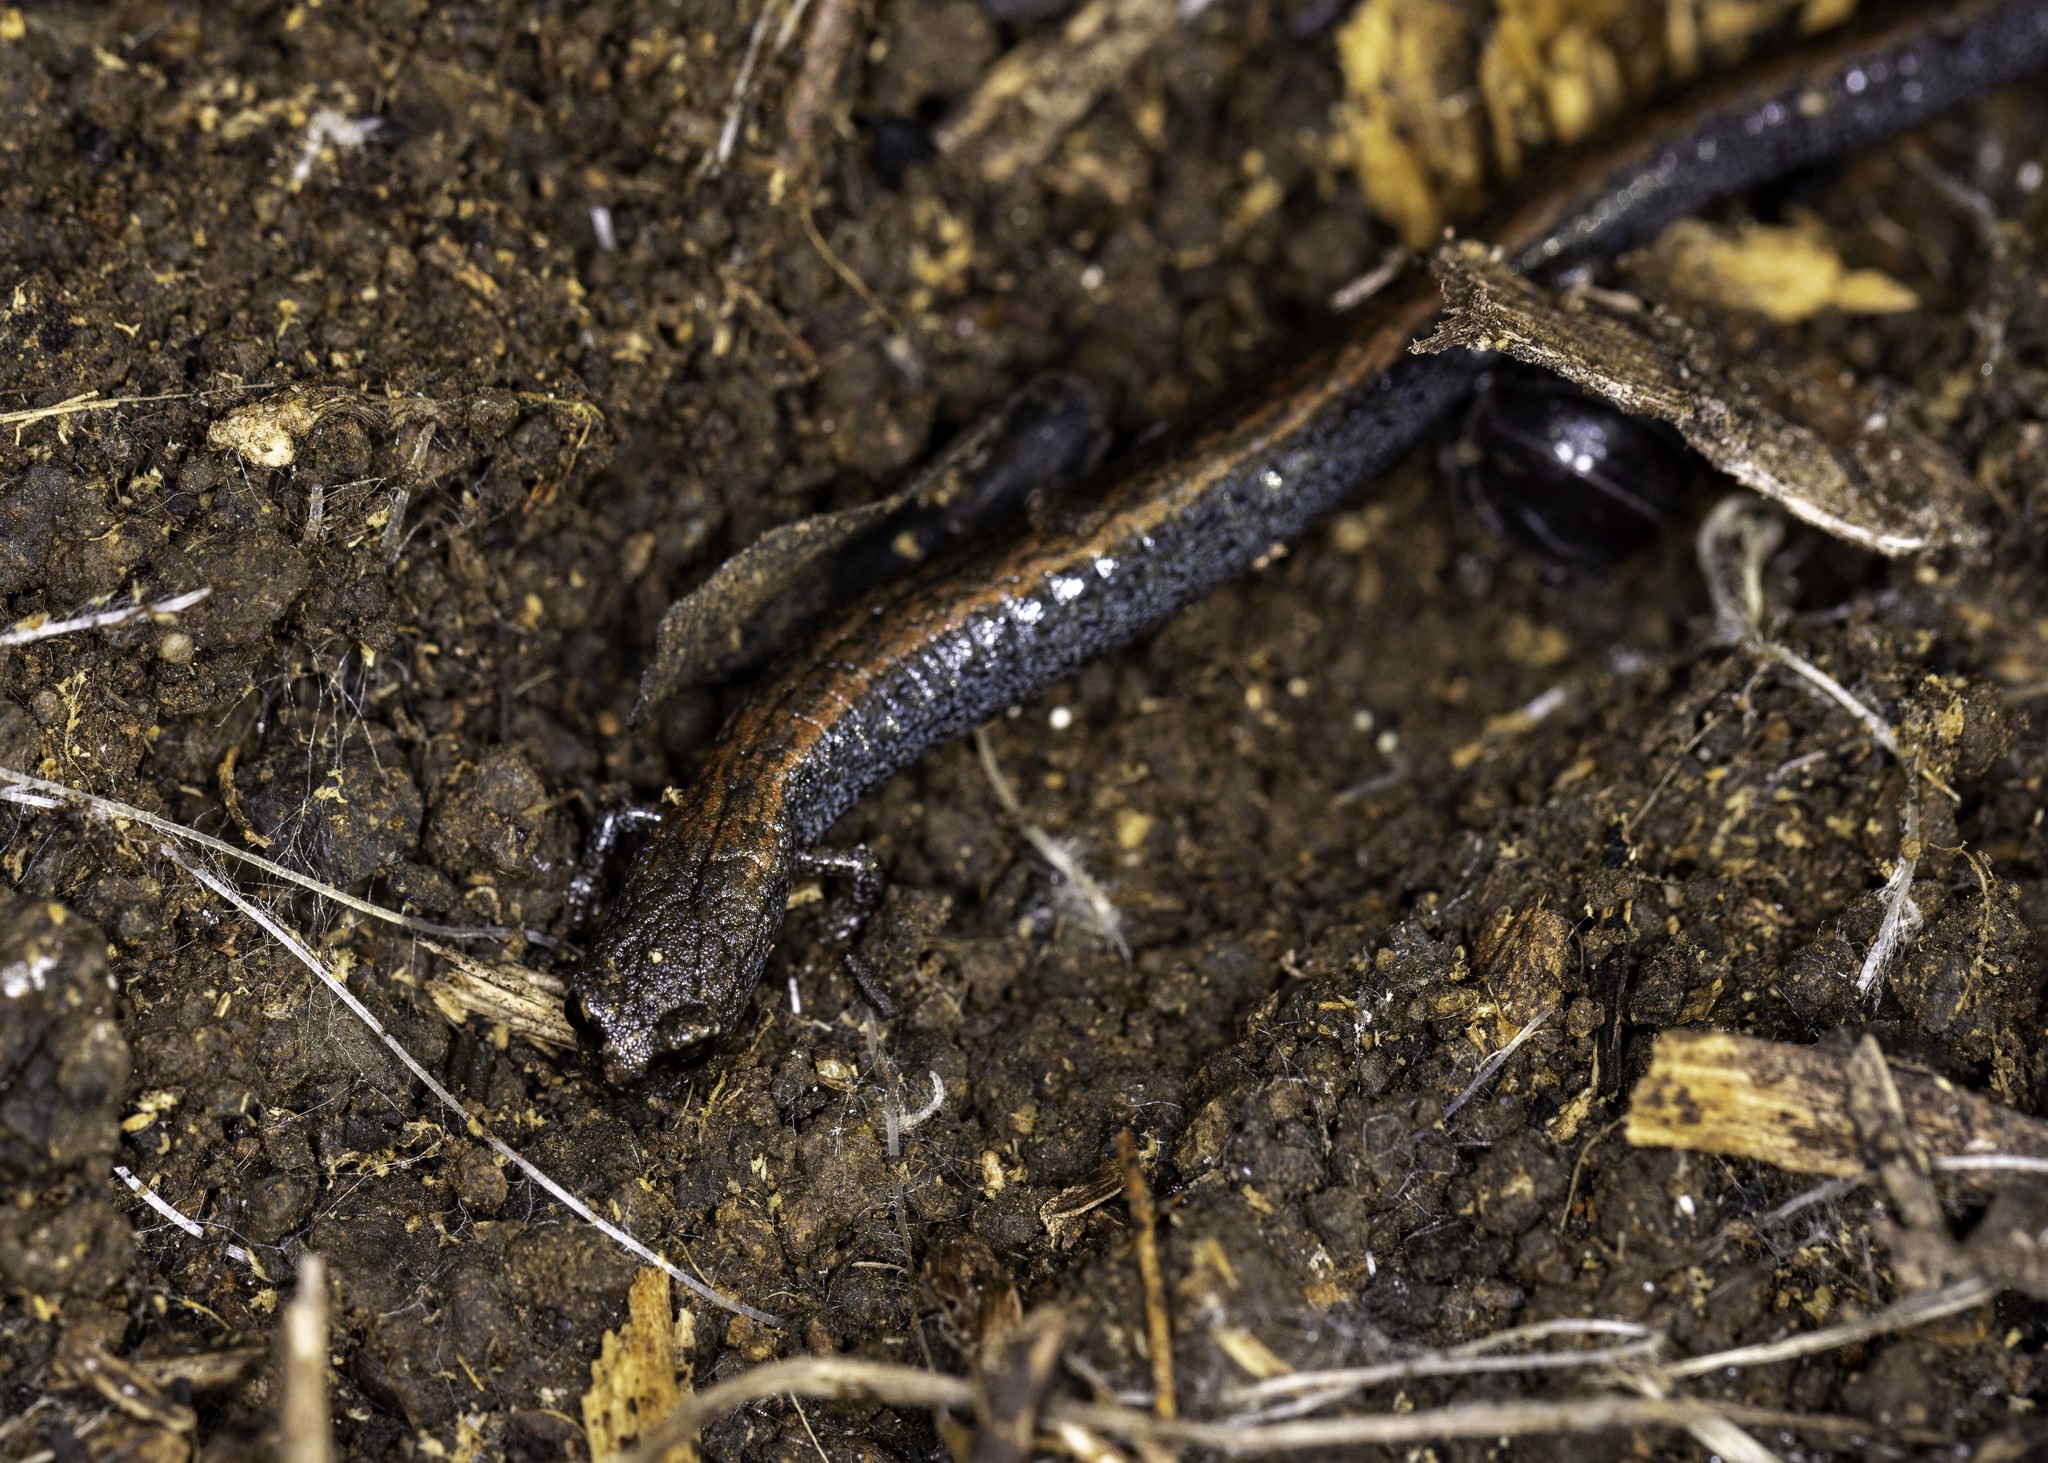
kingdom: Animalia
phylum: Chordata
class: Amphibia
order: Caudata
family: Plethodontidae
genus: Batrachoseps
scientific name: Batrachoseps nigriventris
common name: Black-bellied slender salamander
